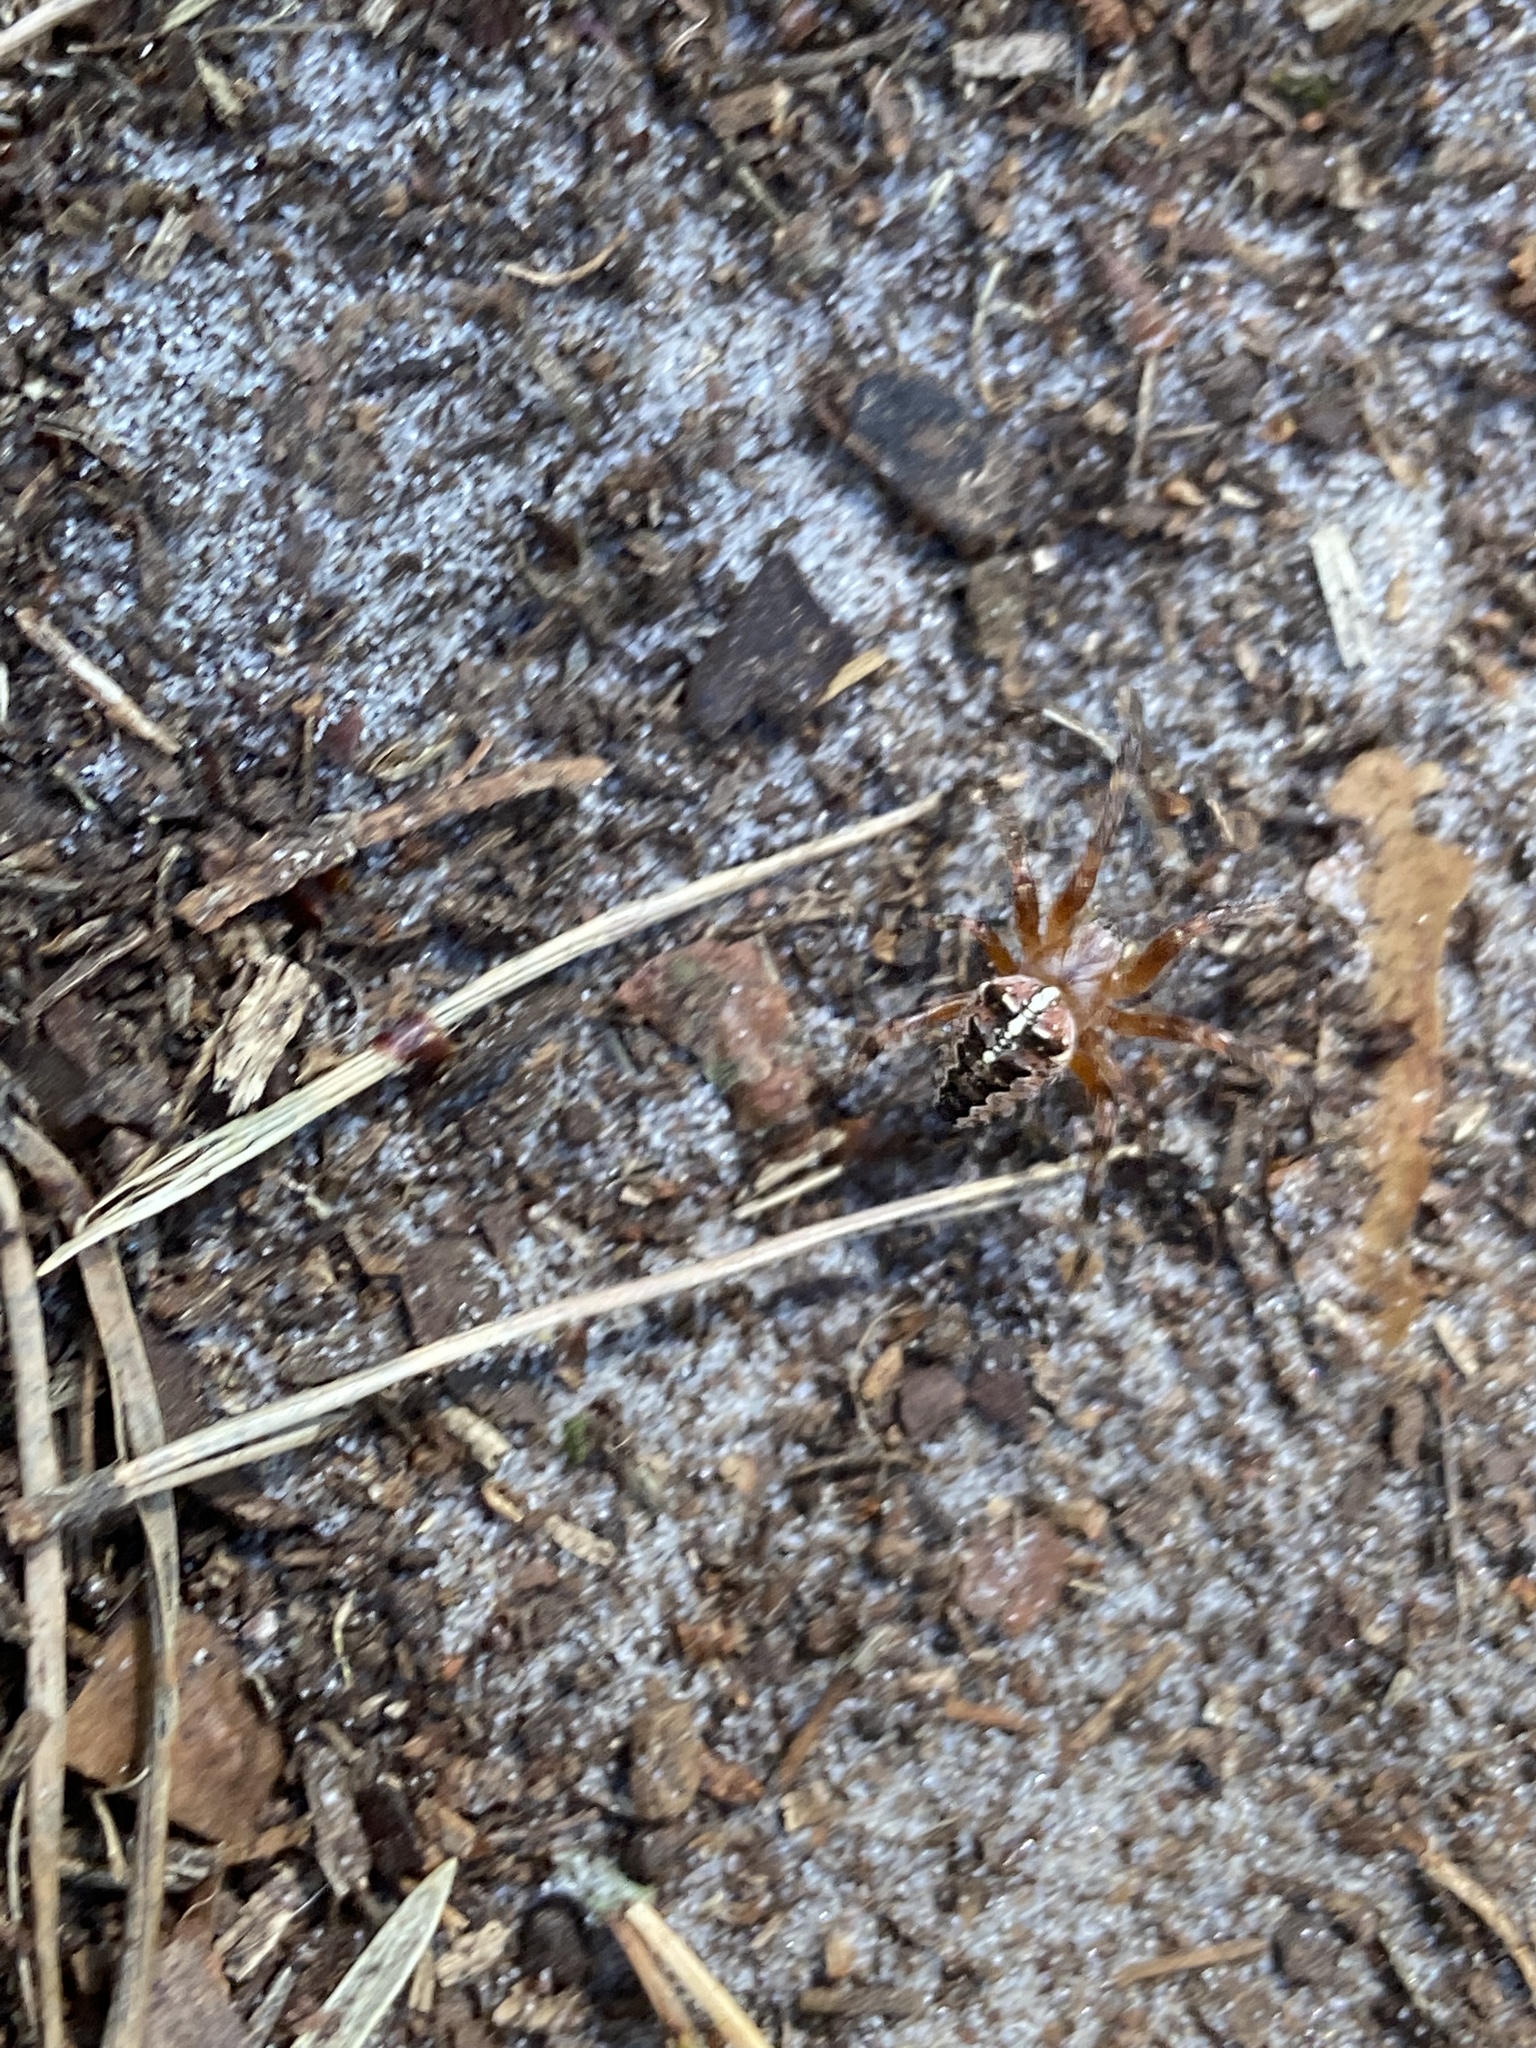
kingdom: Animalia
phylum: Arthropoda
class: Arachnida
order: Araneae
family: Araneidae
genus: Araneus
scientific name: Araneus diadematus
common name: Cross orbweaver
